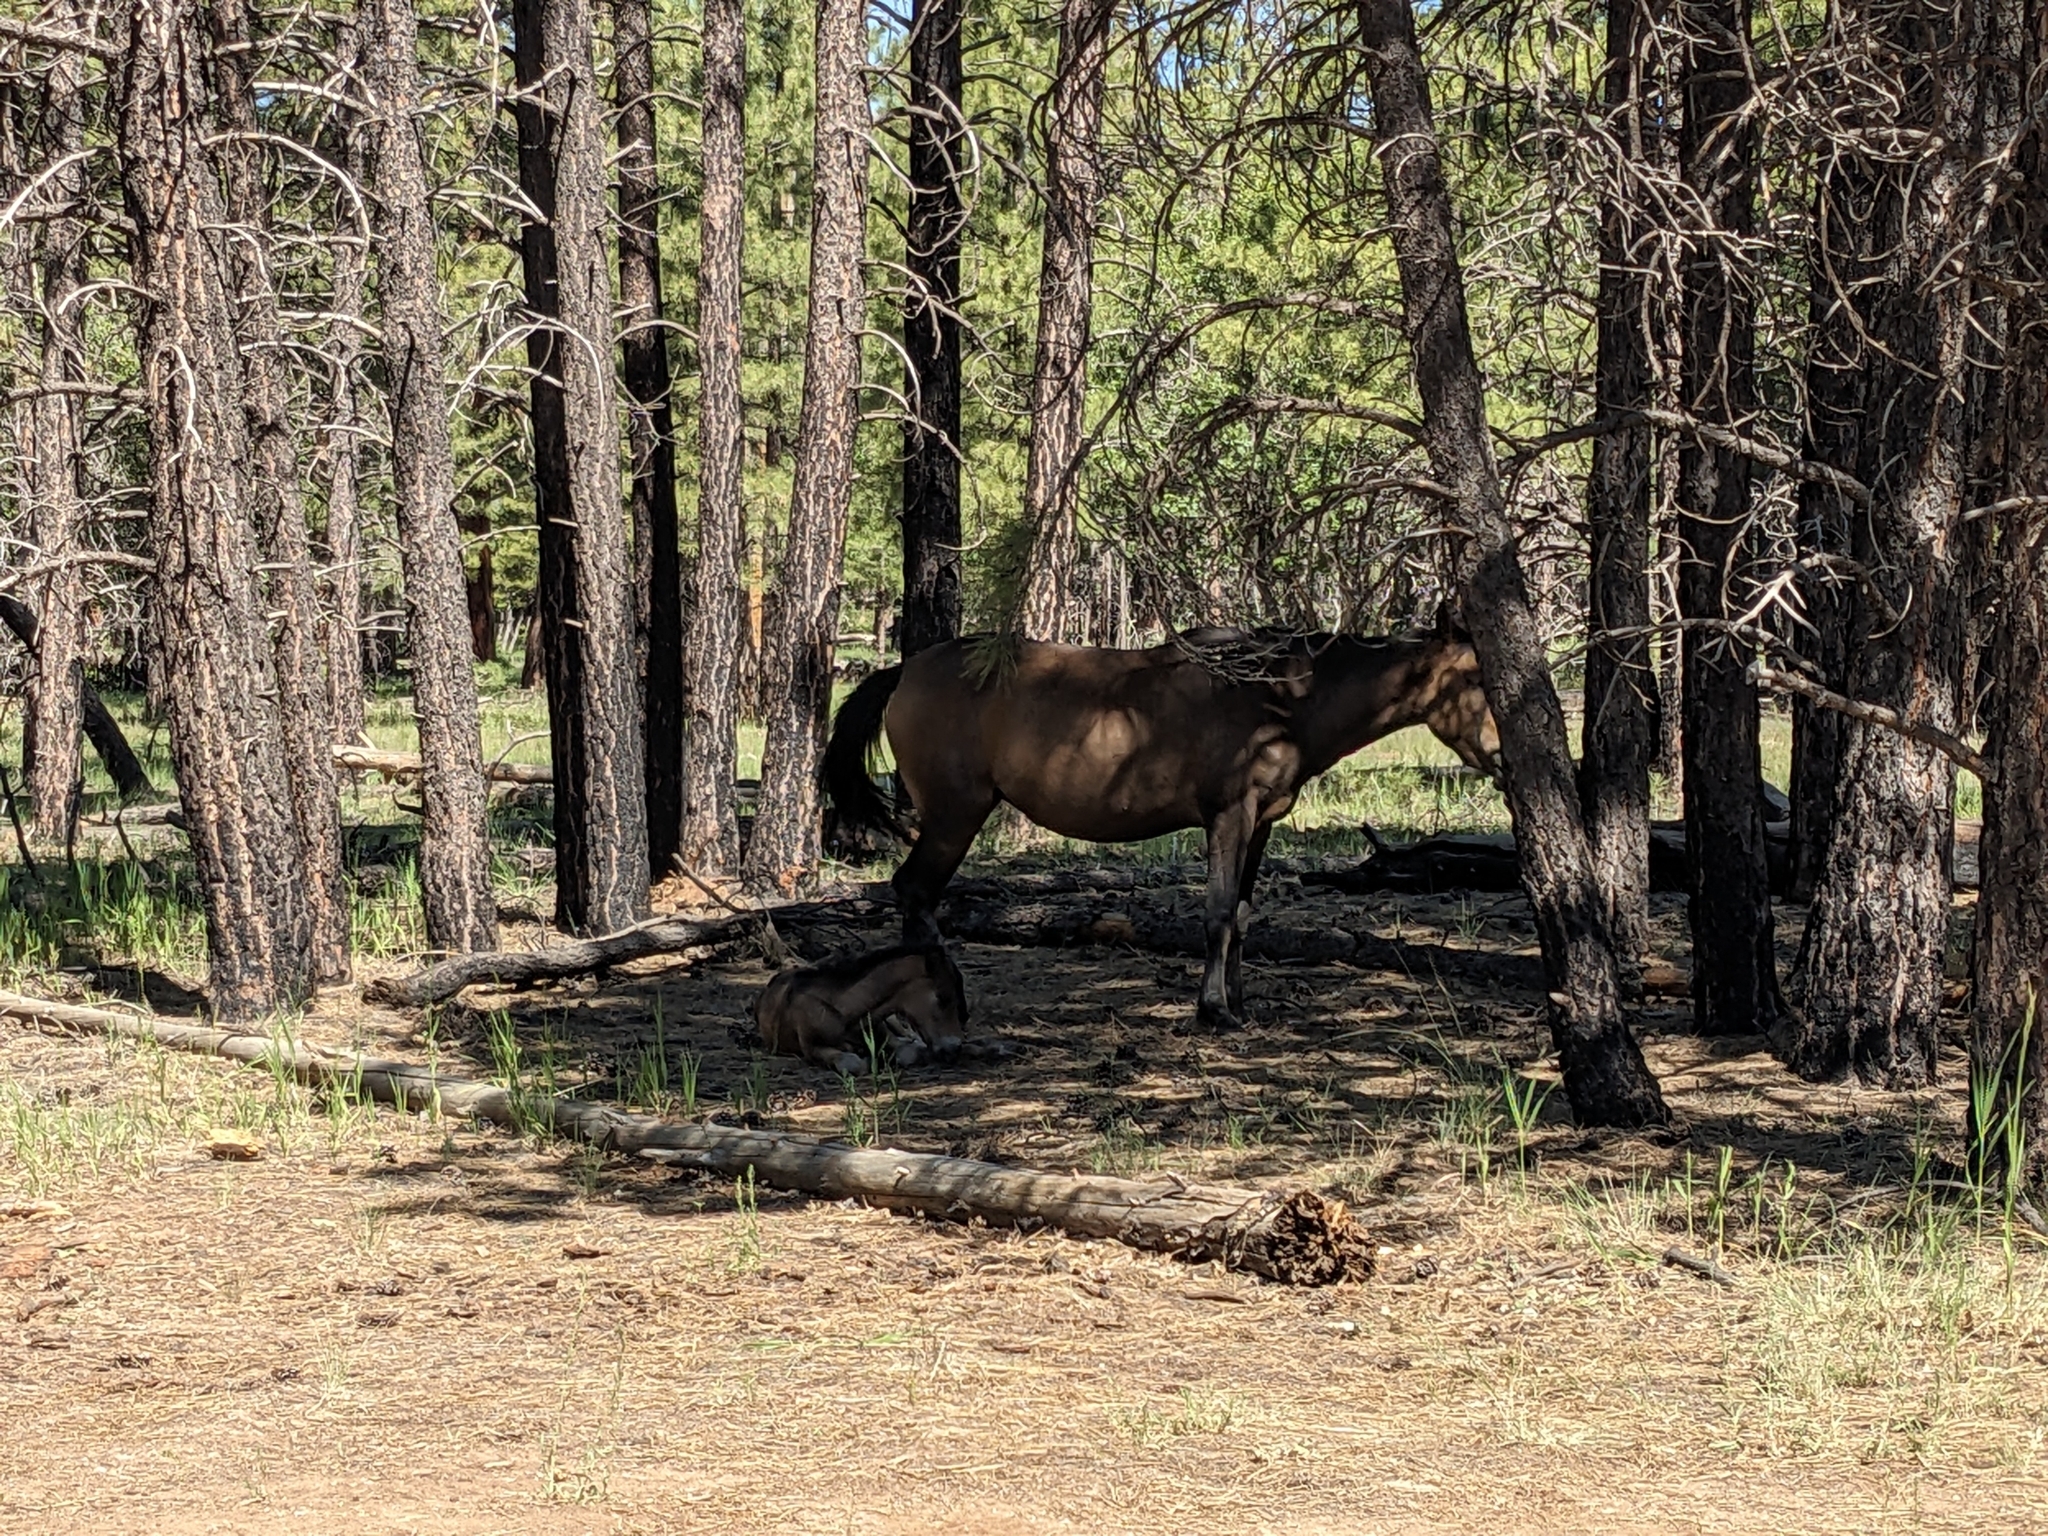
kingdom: Animalia
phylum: Chordata
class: Mammalia
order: Perissodactyla
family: Equidae
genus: Equus
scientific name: Equus caballus
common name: Horse
